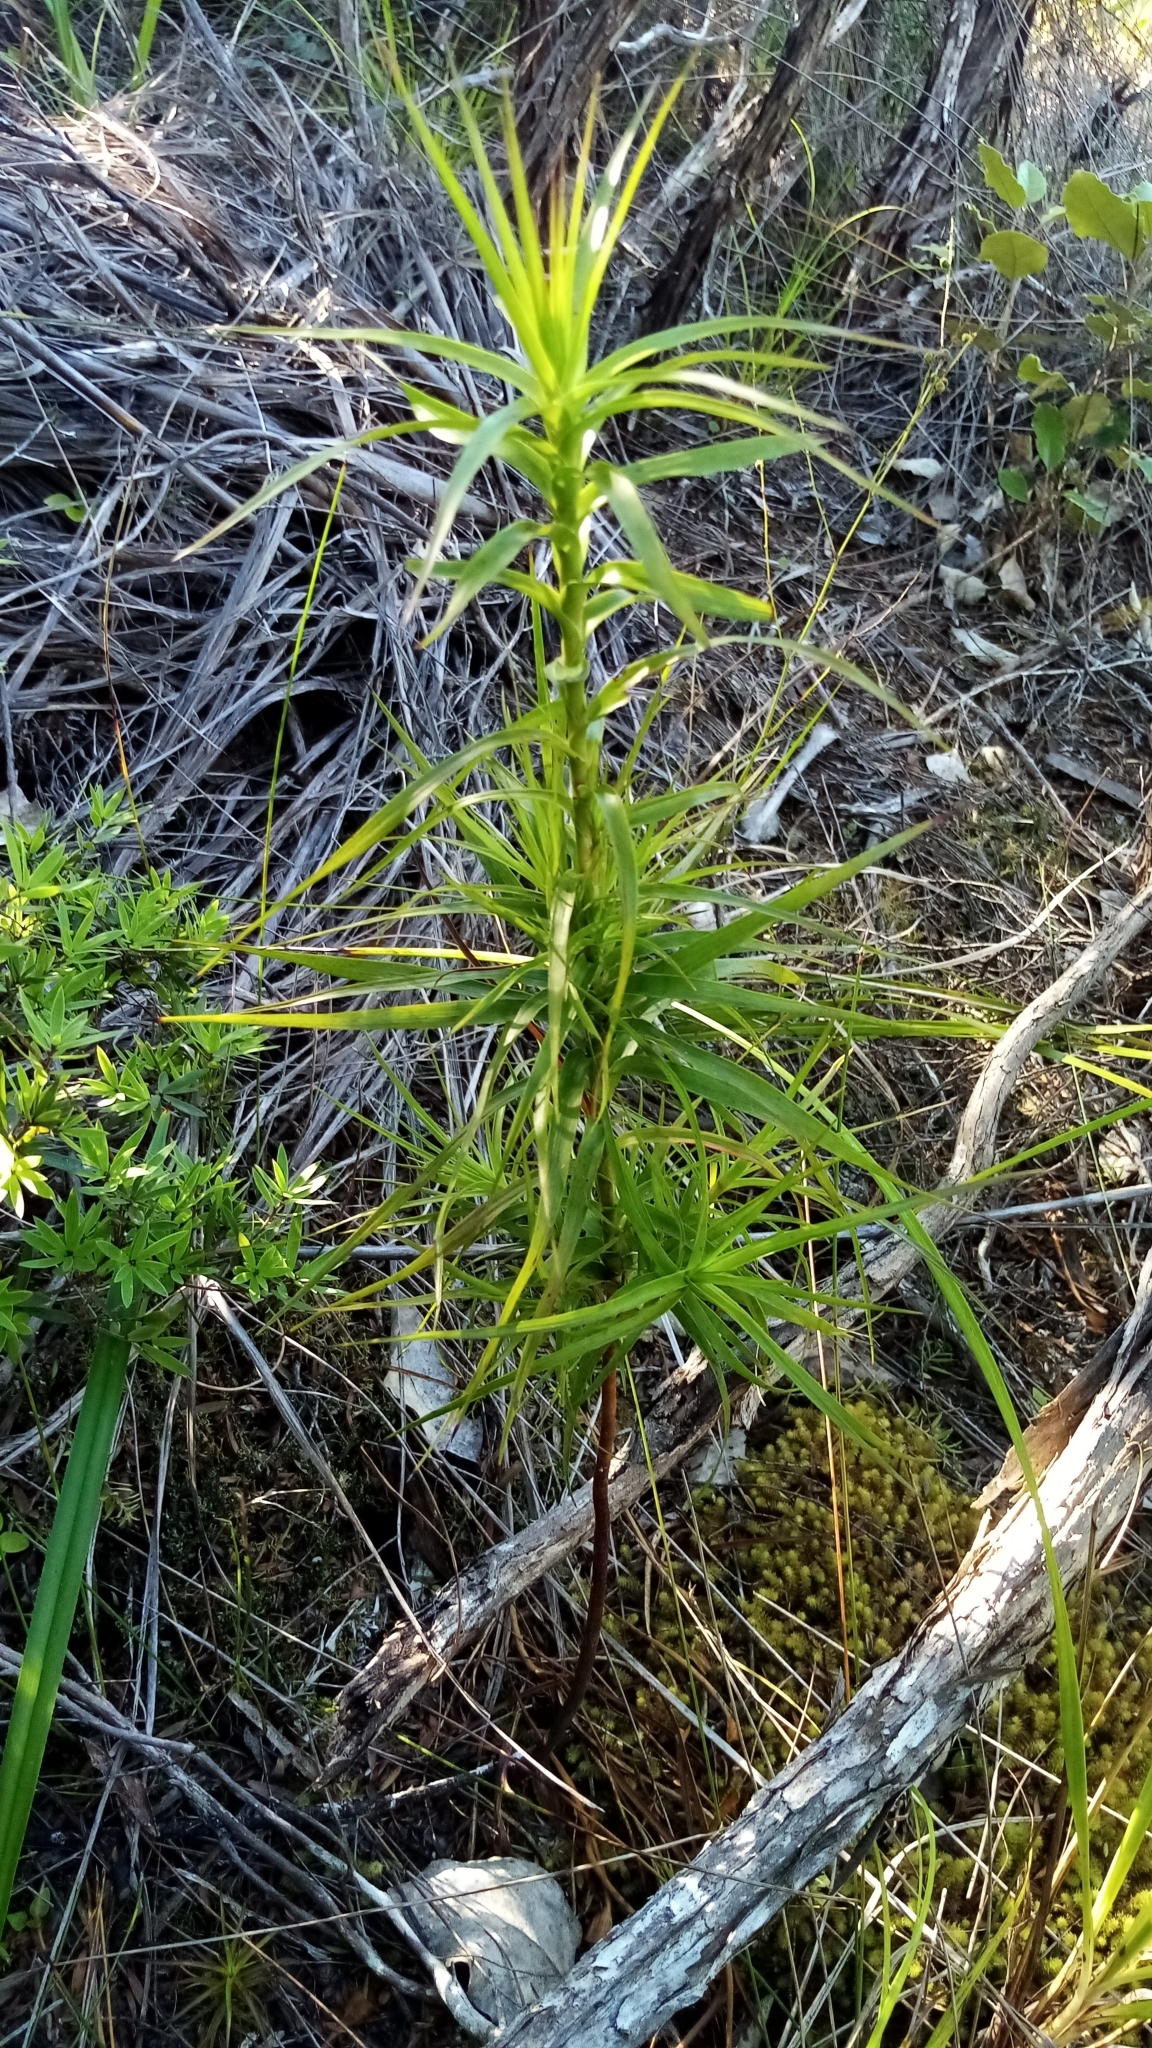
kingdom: Plantae
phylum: Tracheophyta
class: Magnoliopsida
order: Ericales
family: Ericaceae
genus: Dracophyllum
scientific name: Dracophyllum sinclairii
